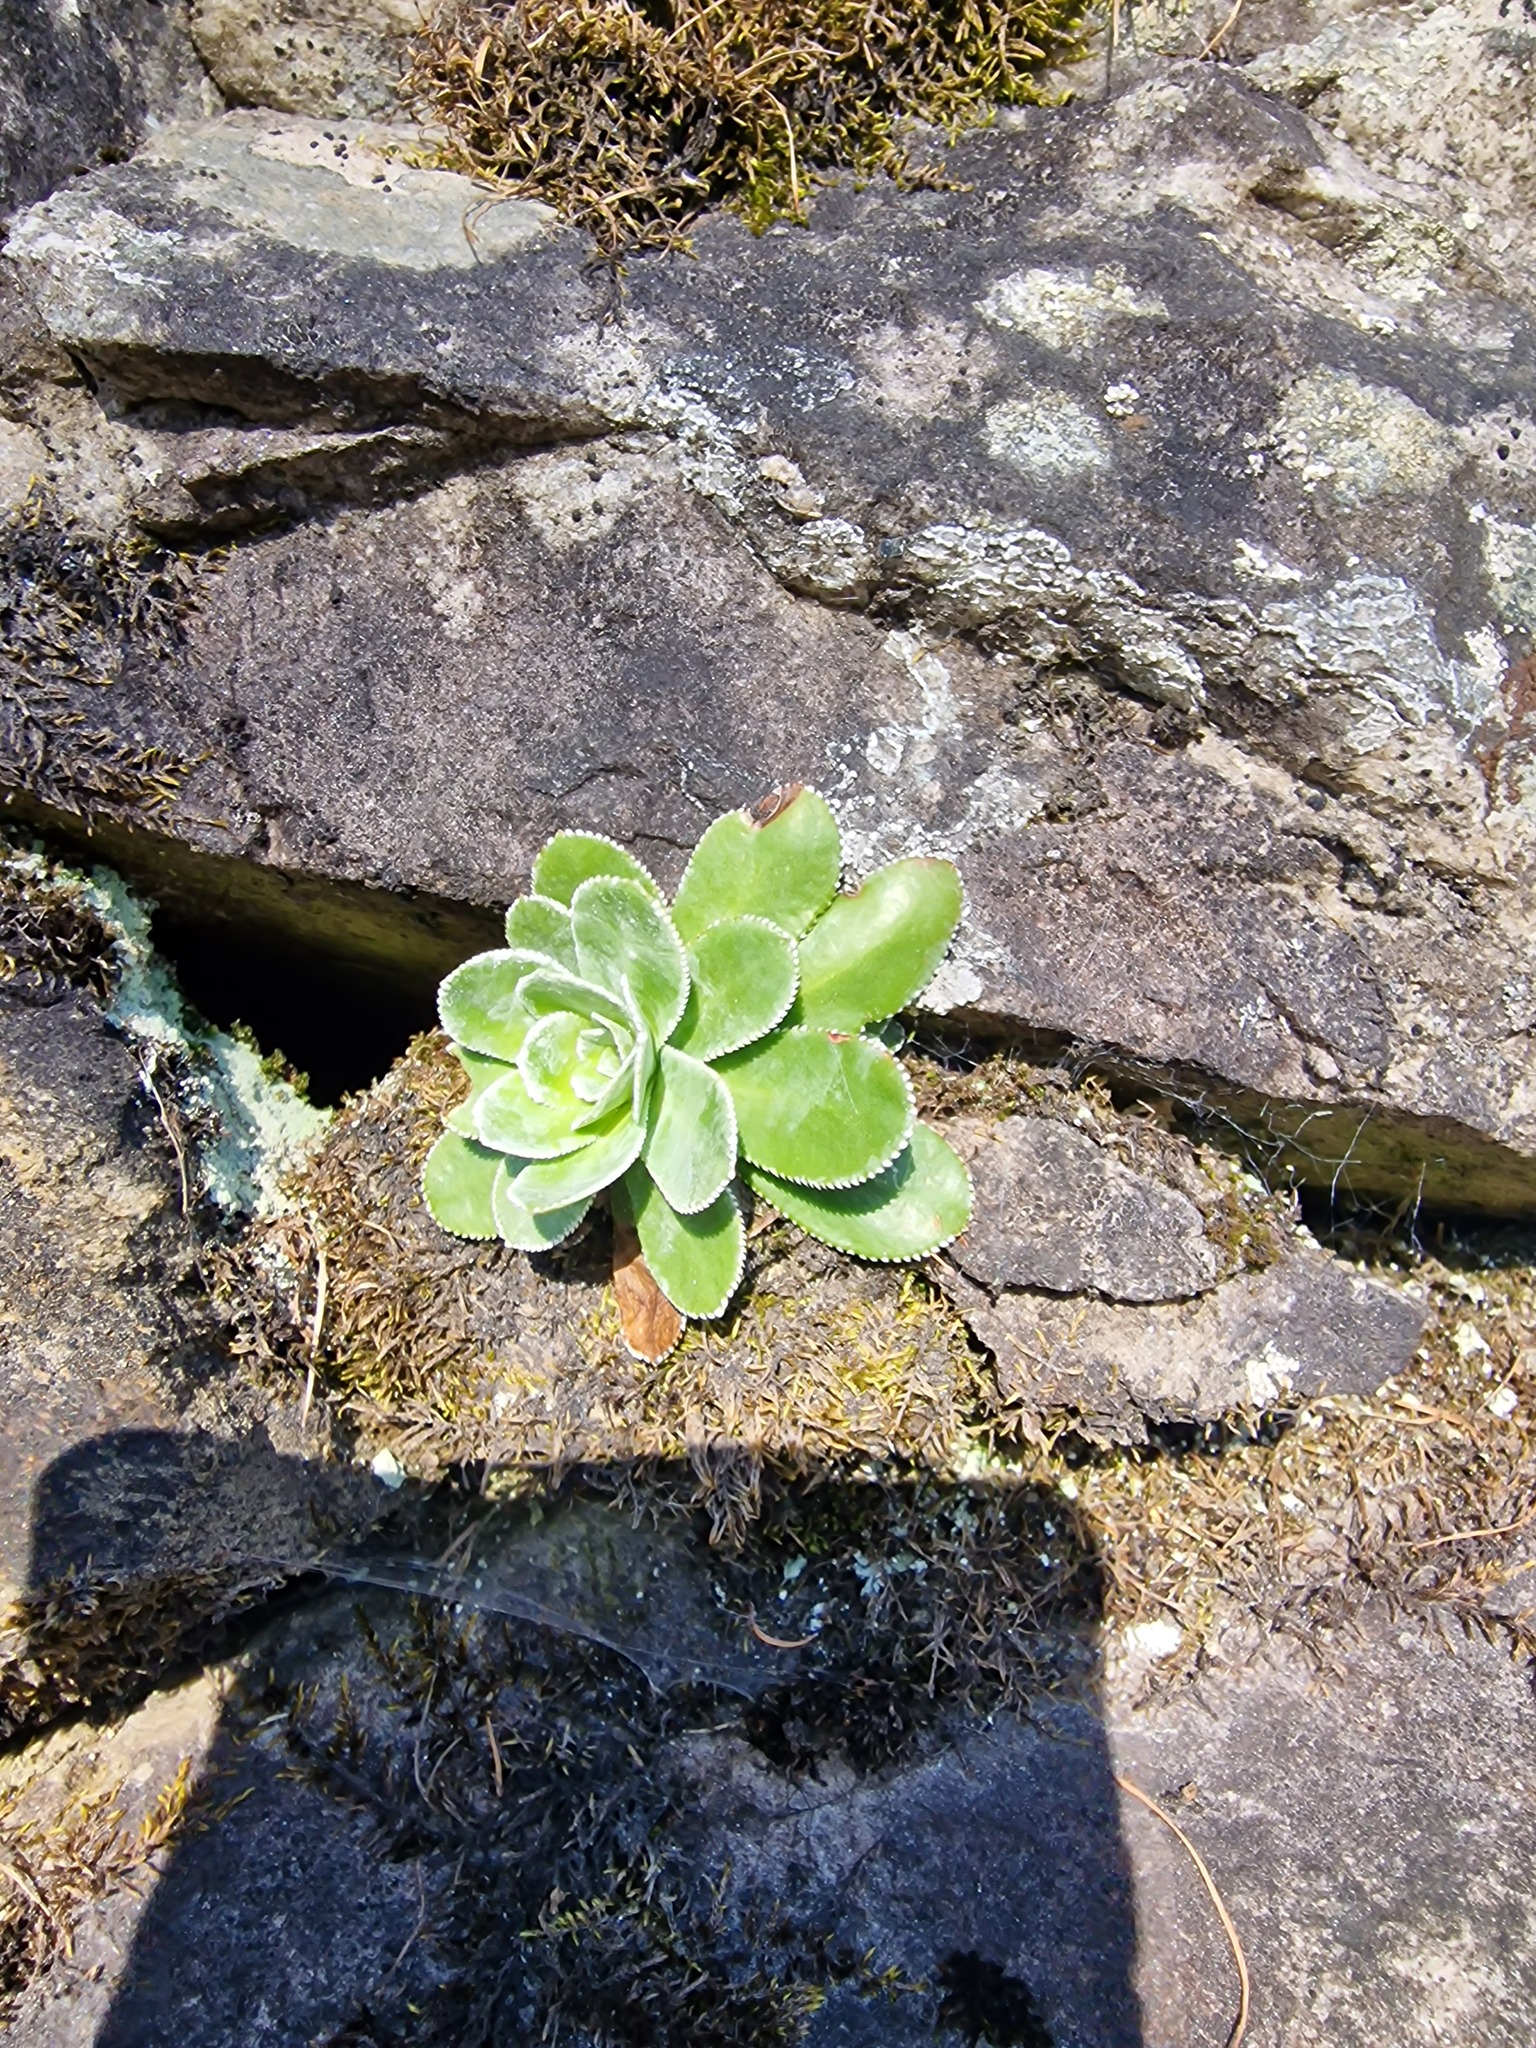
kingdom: Plantae
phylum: Tracheophyta
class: Magnoliopsida
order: Saxifragales
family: Saxifragaceae
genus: Saxifraga
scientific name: Saxifraga cotyledon
